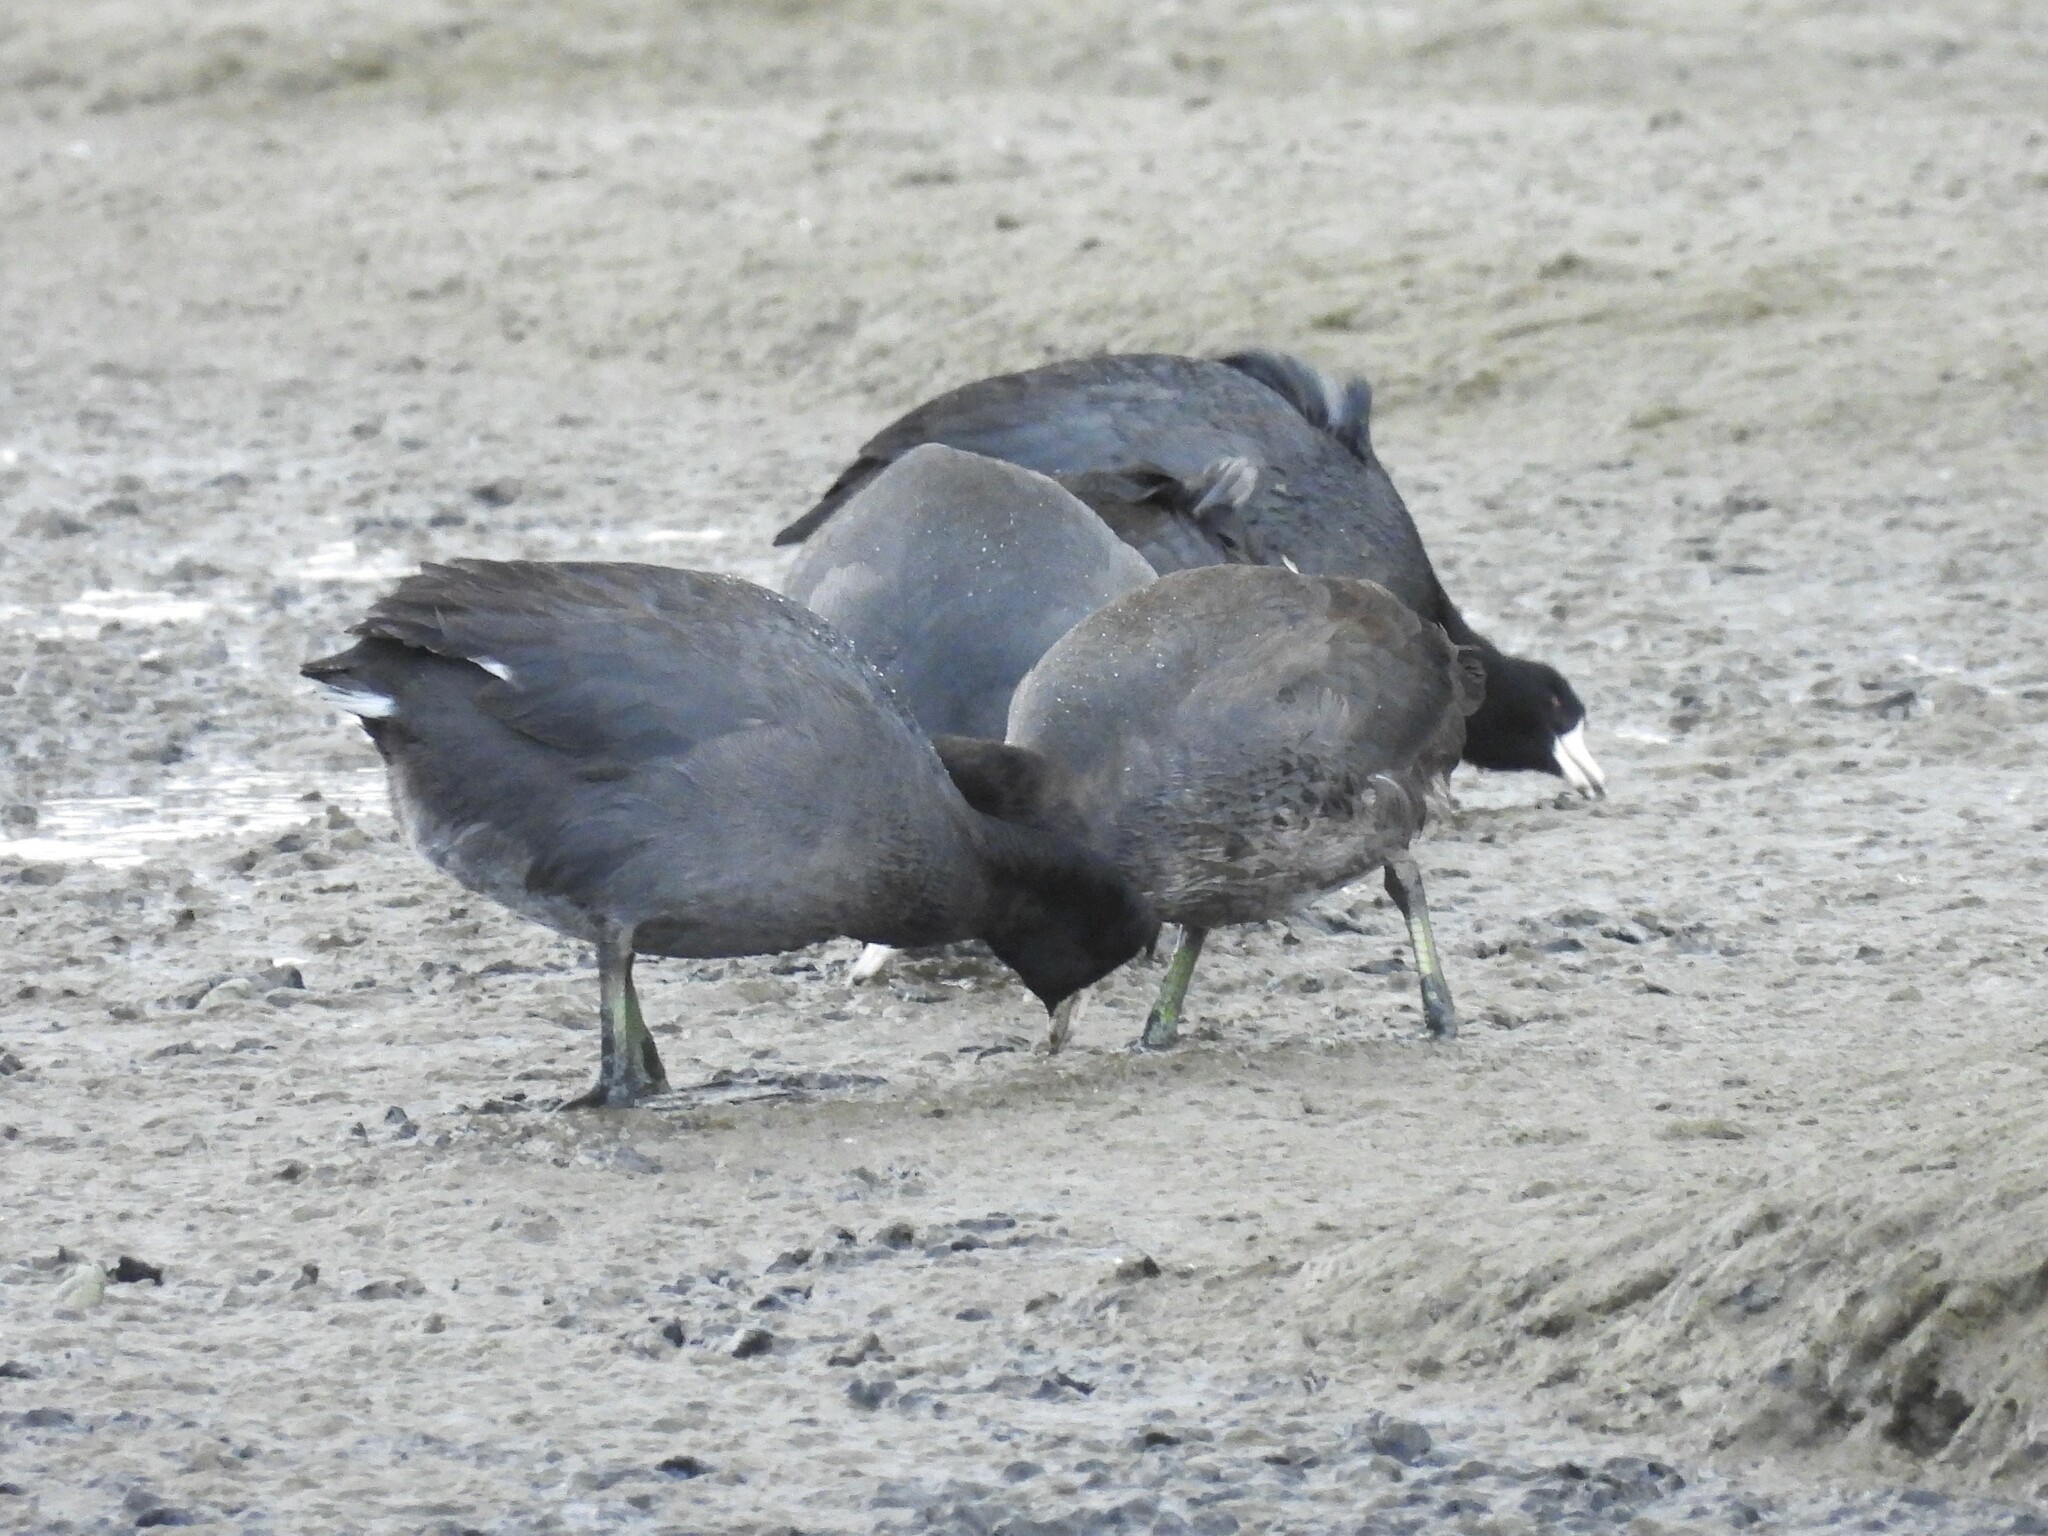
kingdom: Animalia
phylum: Chordata
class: Aves
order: Gruiformes
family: Rallidae
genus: Fulica
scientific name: Fulica americana
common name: American coot
